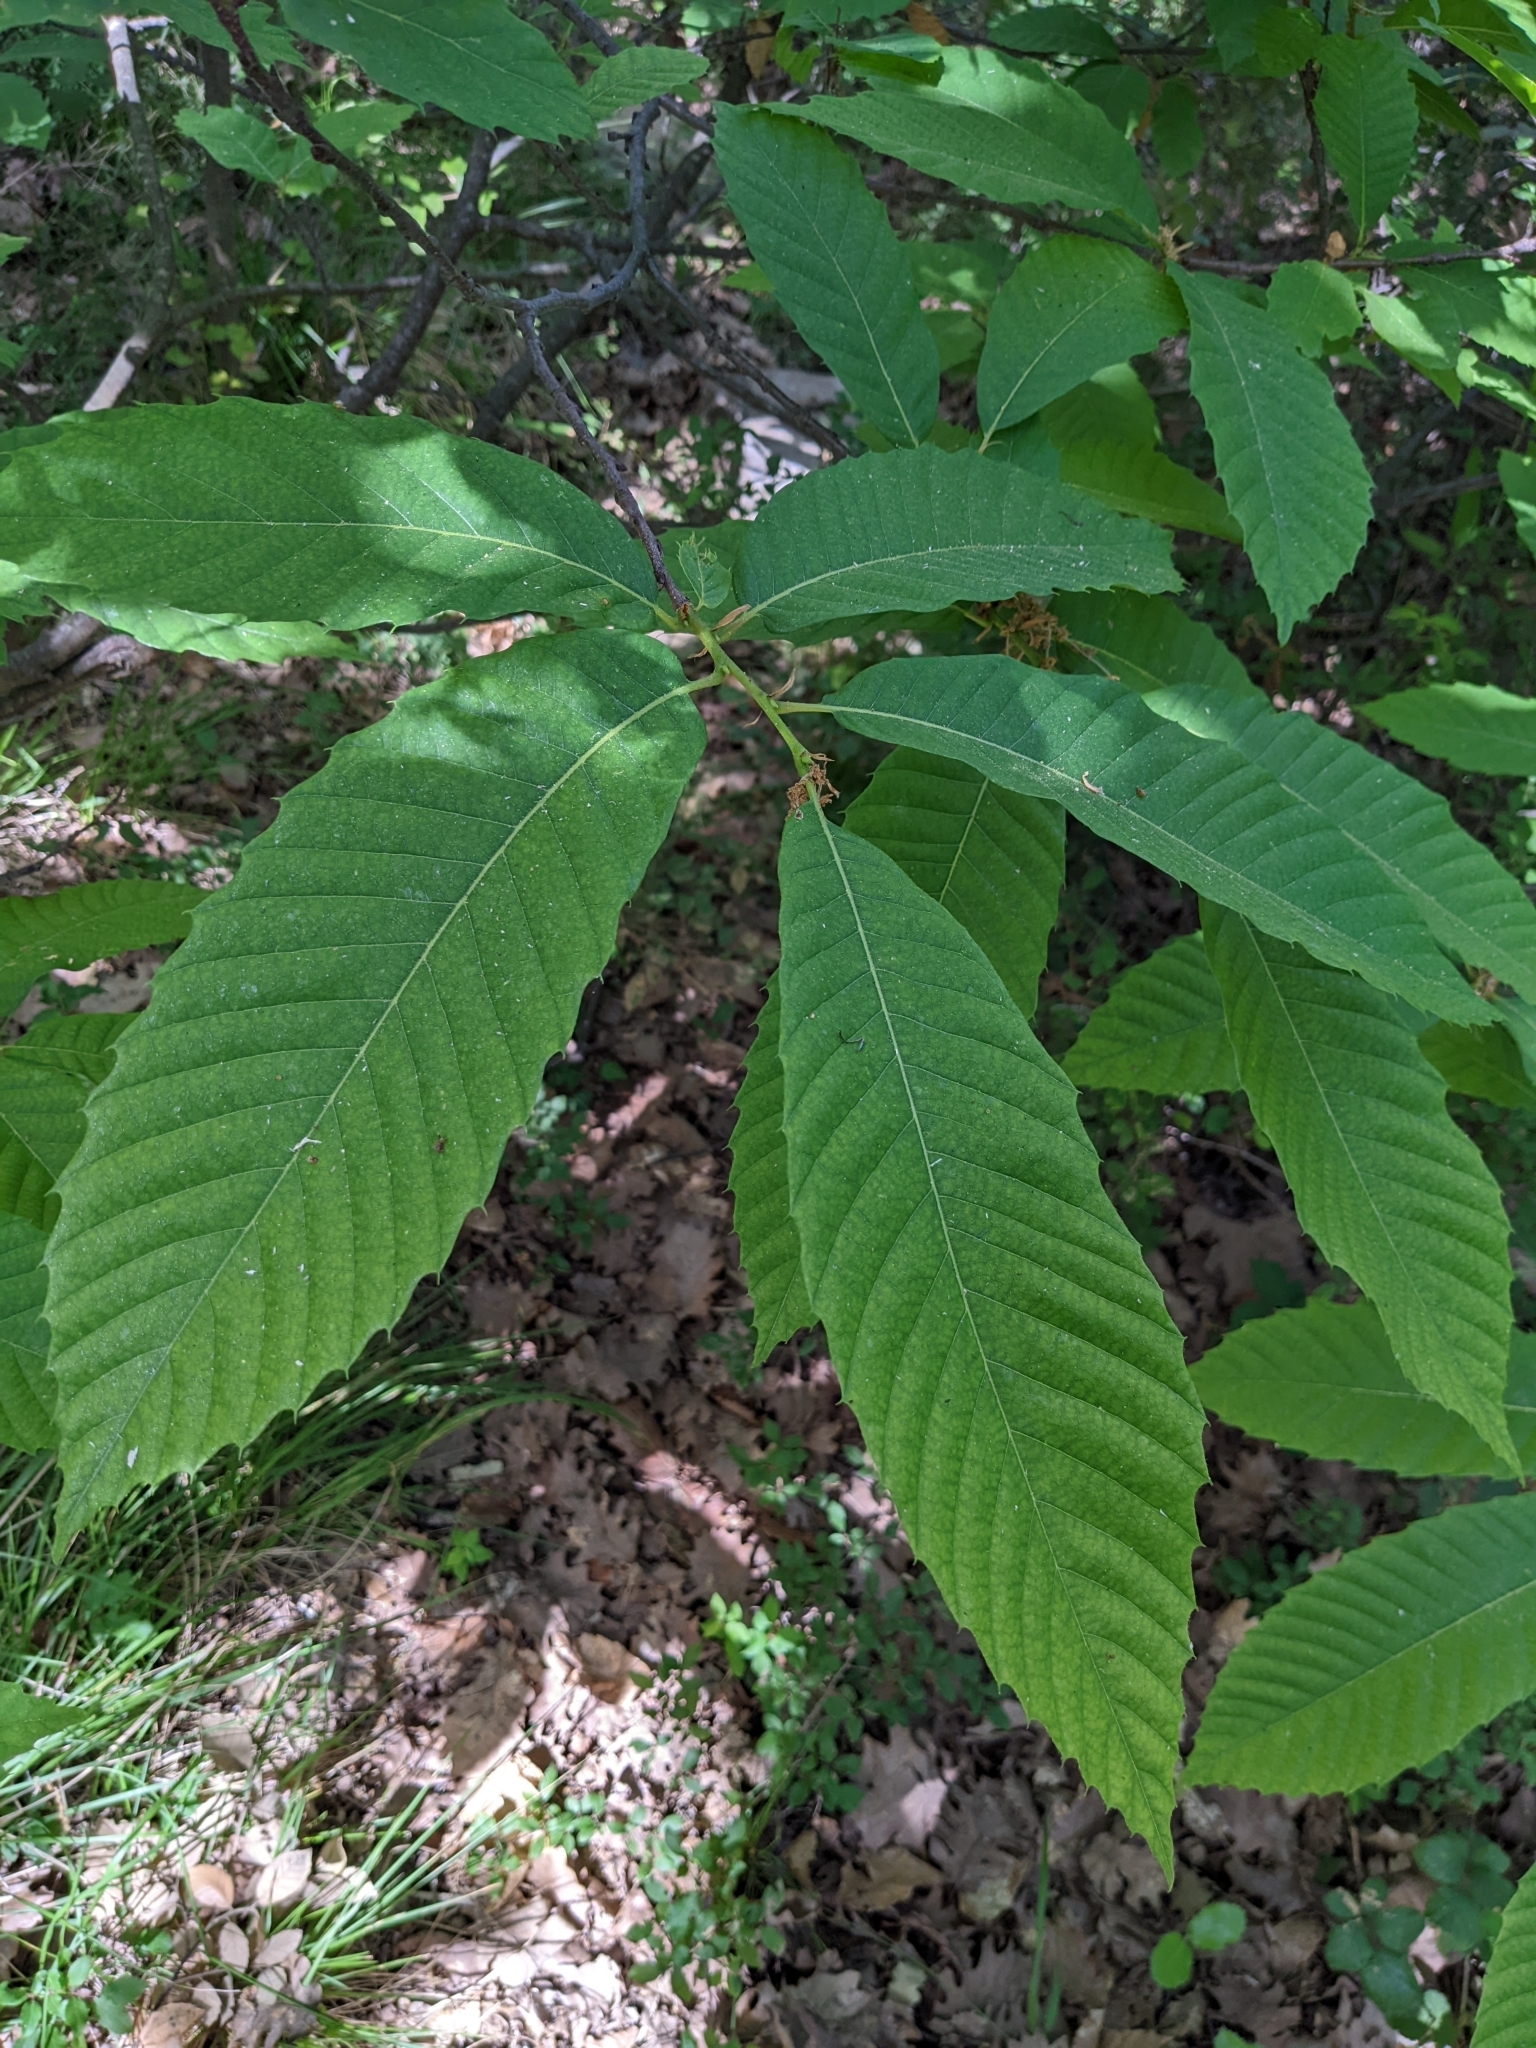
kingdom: Plantae
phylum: Tracheophyta
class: Magnoliopsida
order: Fagales
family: Fagaceae
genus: Castanea
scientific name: Castanea sativa
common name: Sweet chestnut
